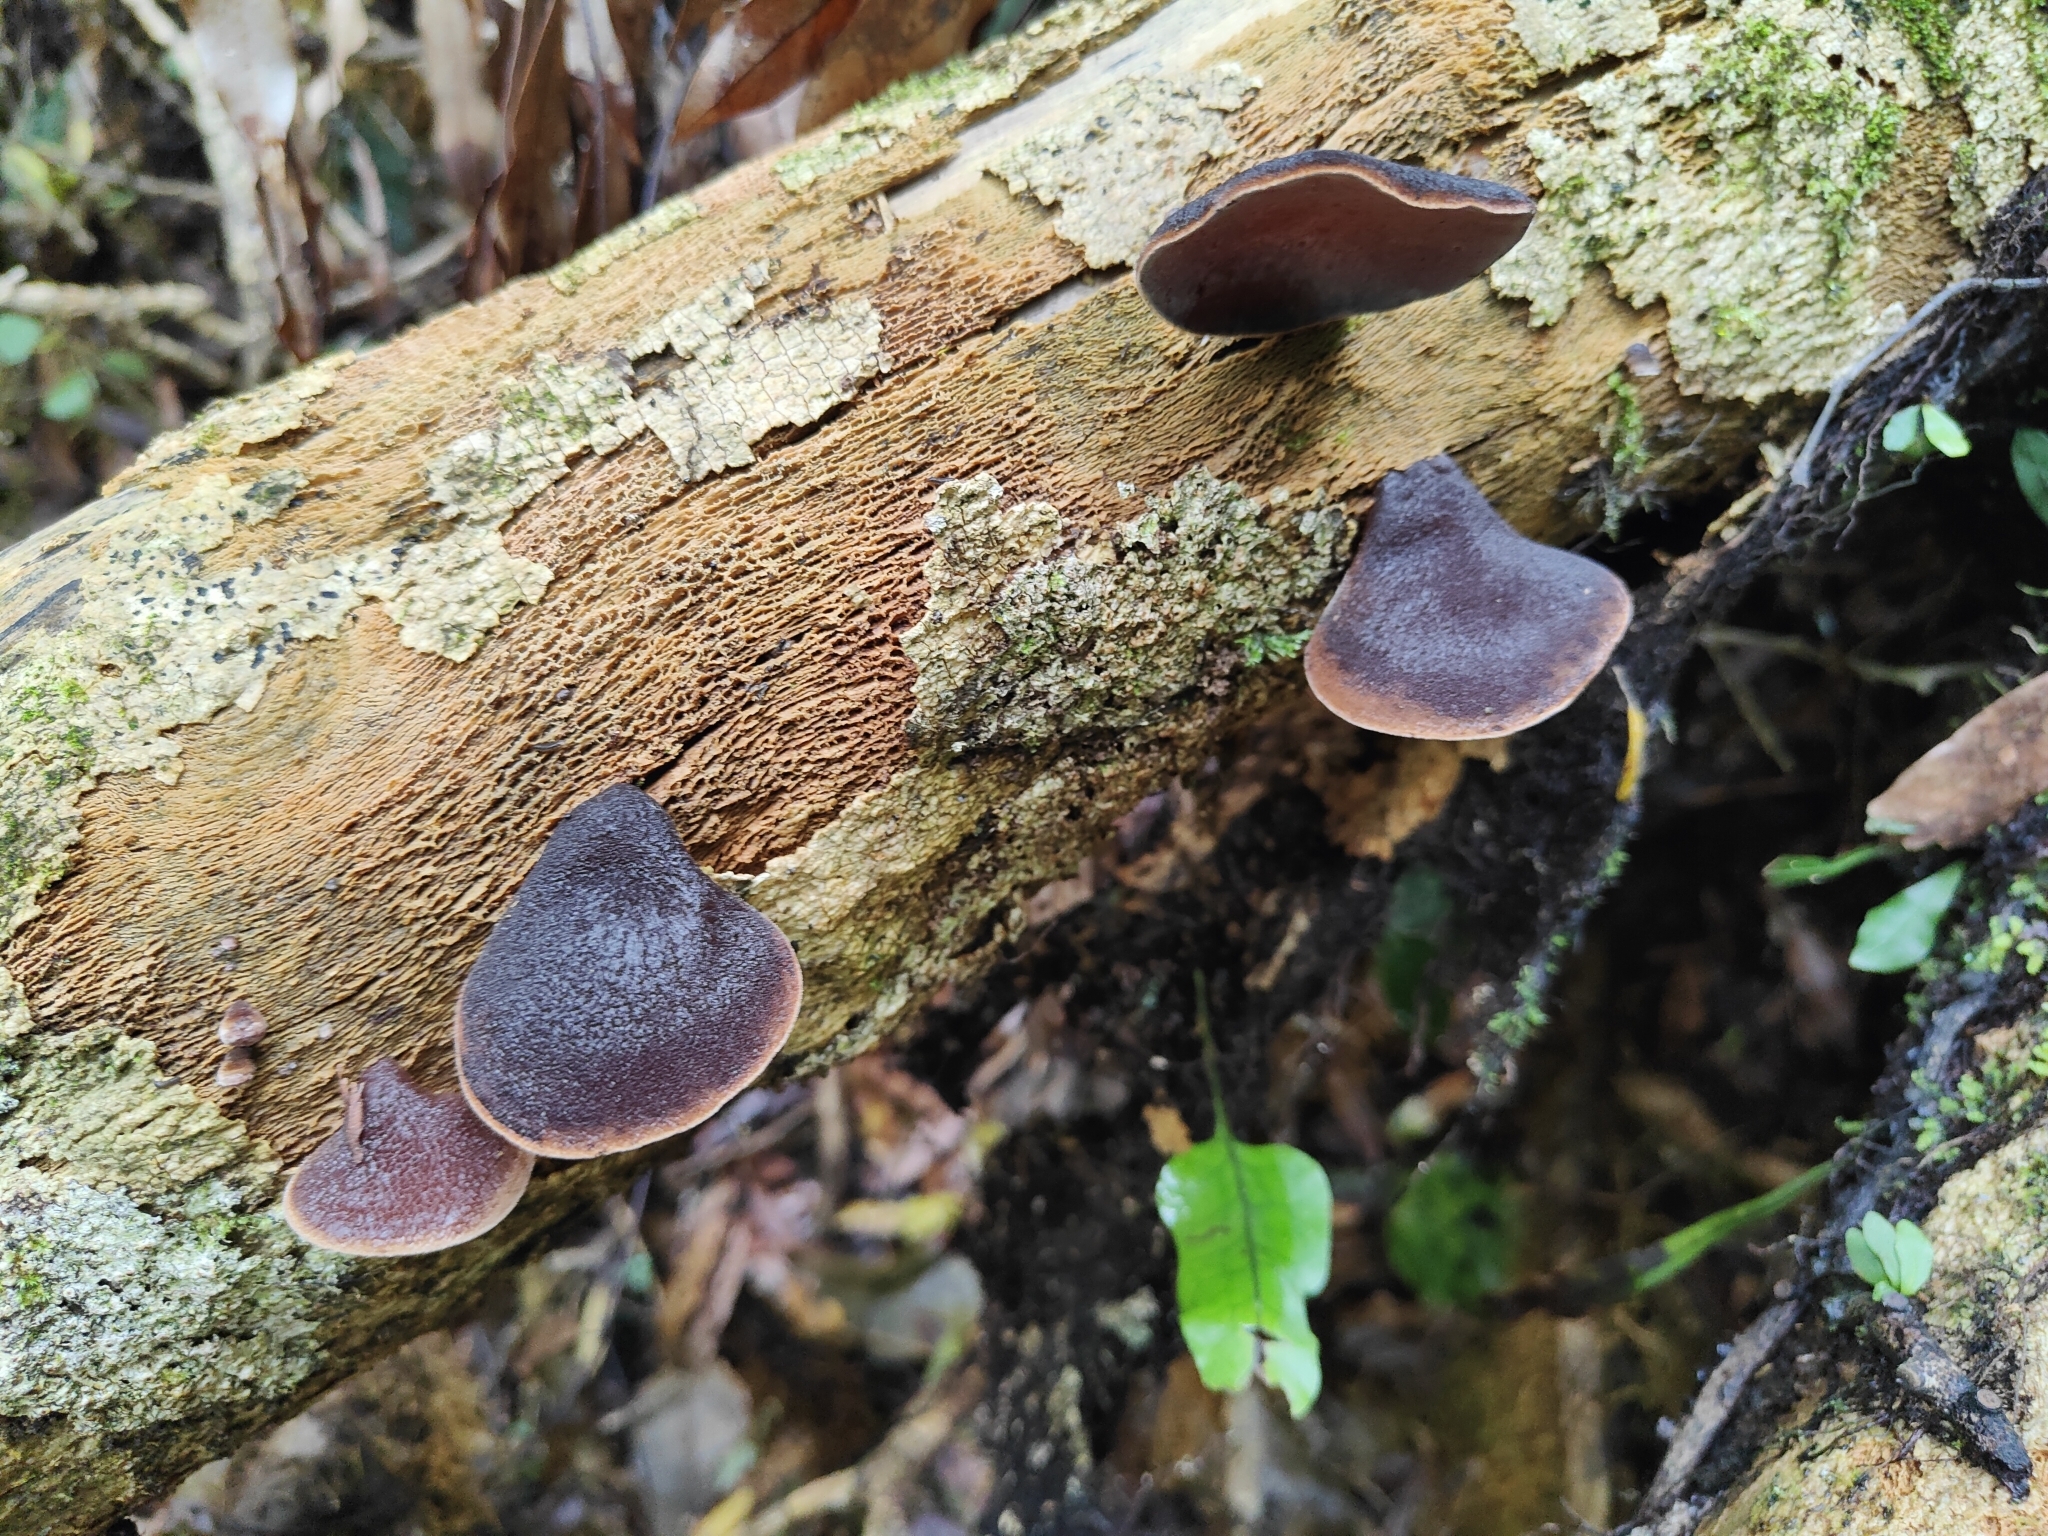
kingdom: Fungi
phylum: Basidiomycota
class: Agaricomycetes
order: Auriculariales
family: Auriculariaceae
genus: Auricularia
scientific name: Auricularia cornea
